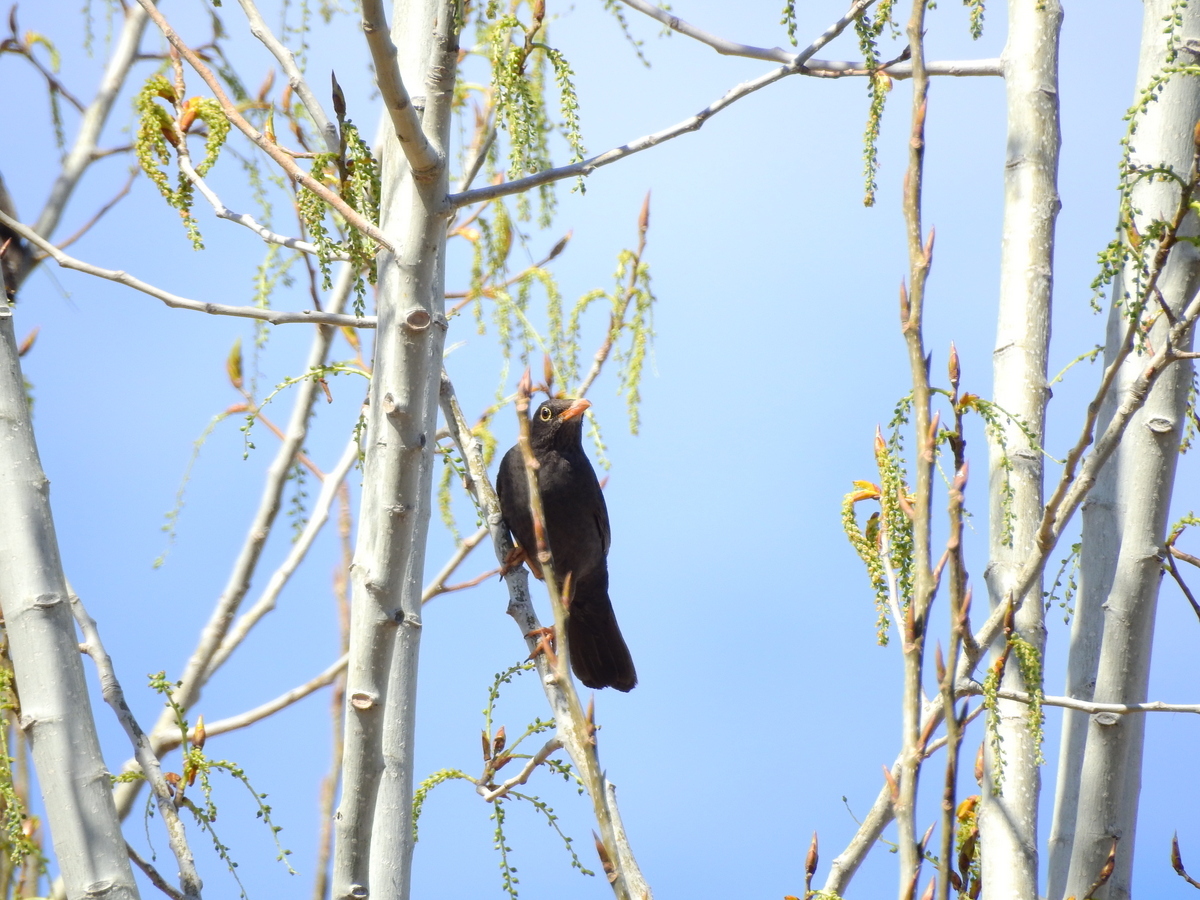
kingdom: Animalia
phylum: Chordata
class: Aves
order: Passeriformes
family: Turdidae
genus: Turdus
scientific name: Turdus chiguanco
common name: Chiguanco thrush
